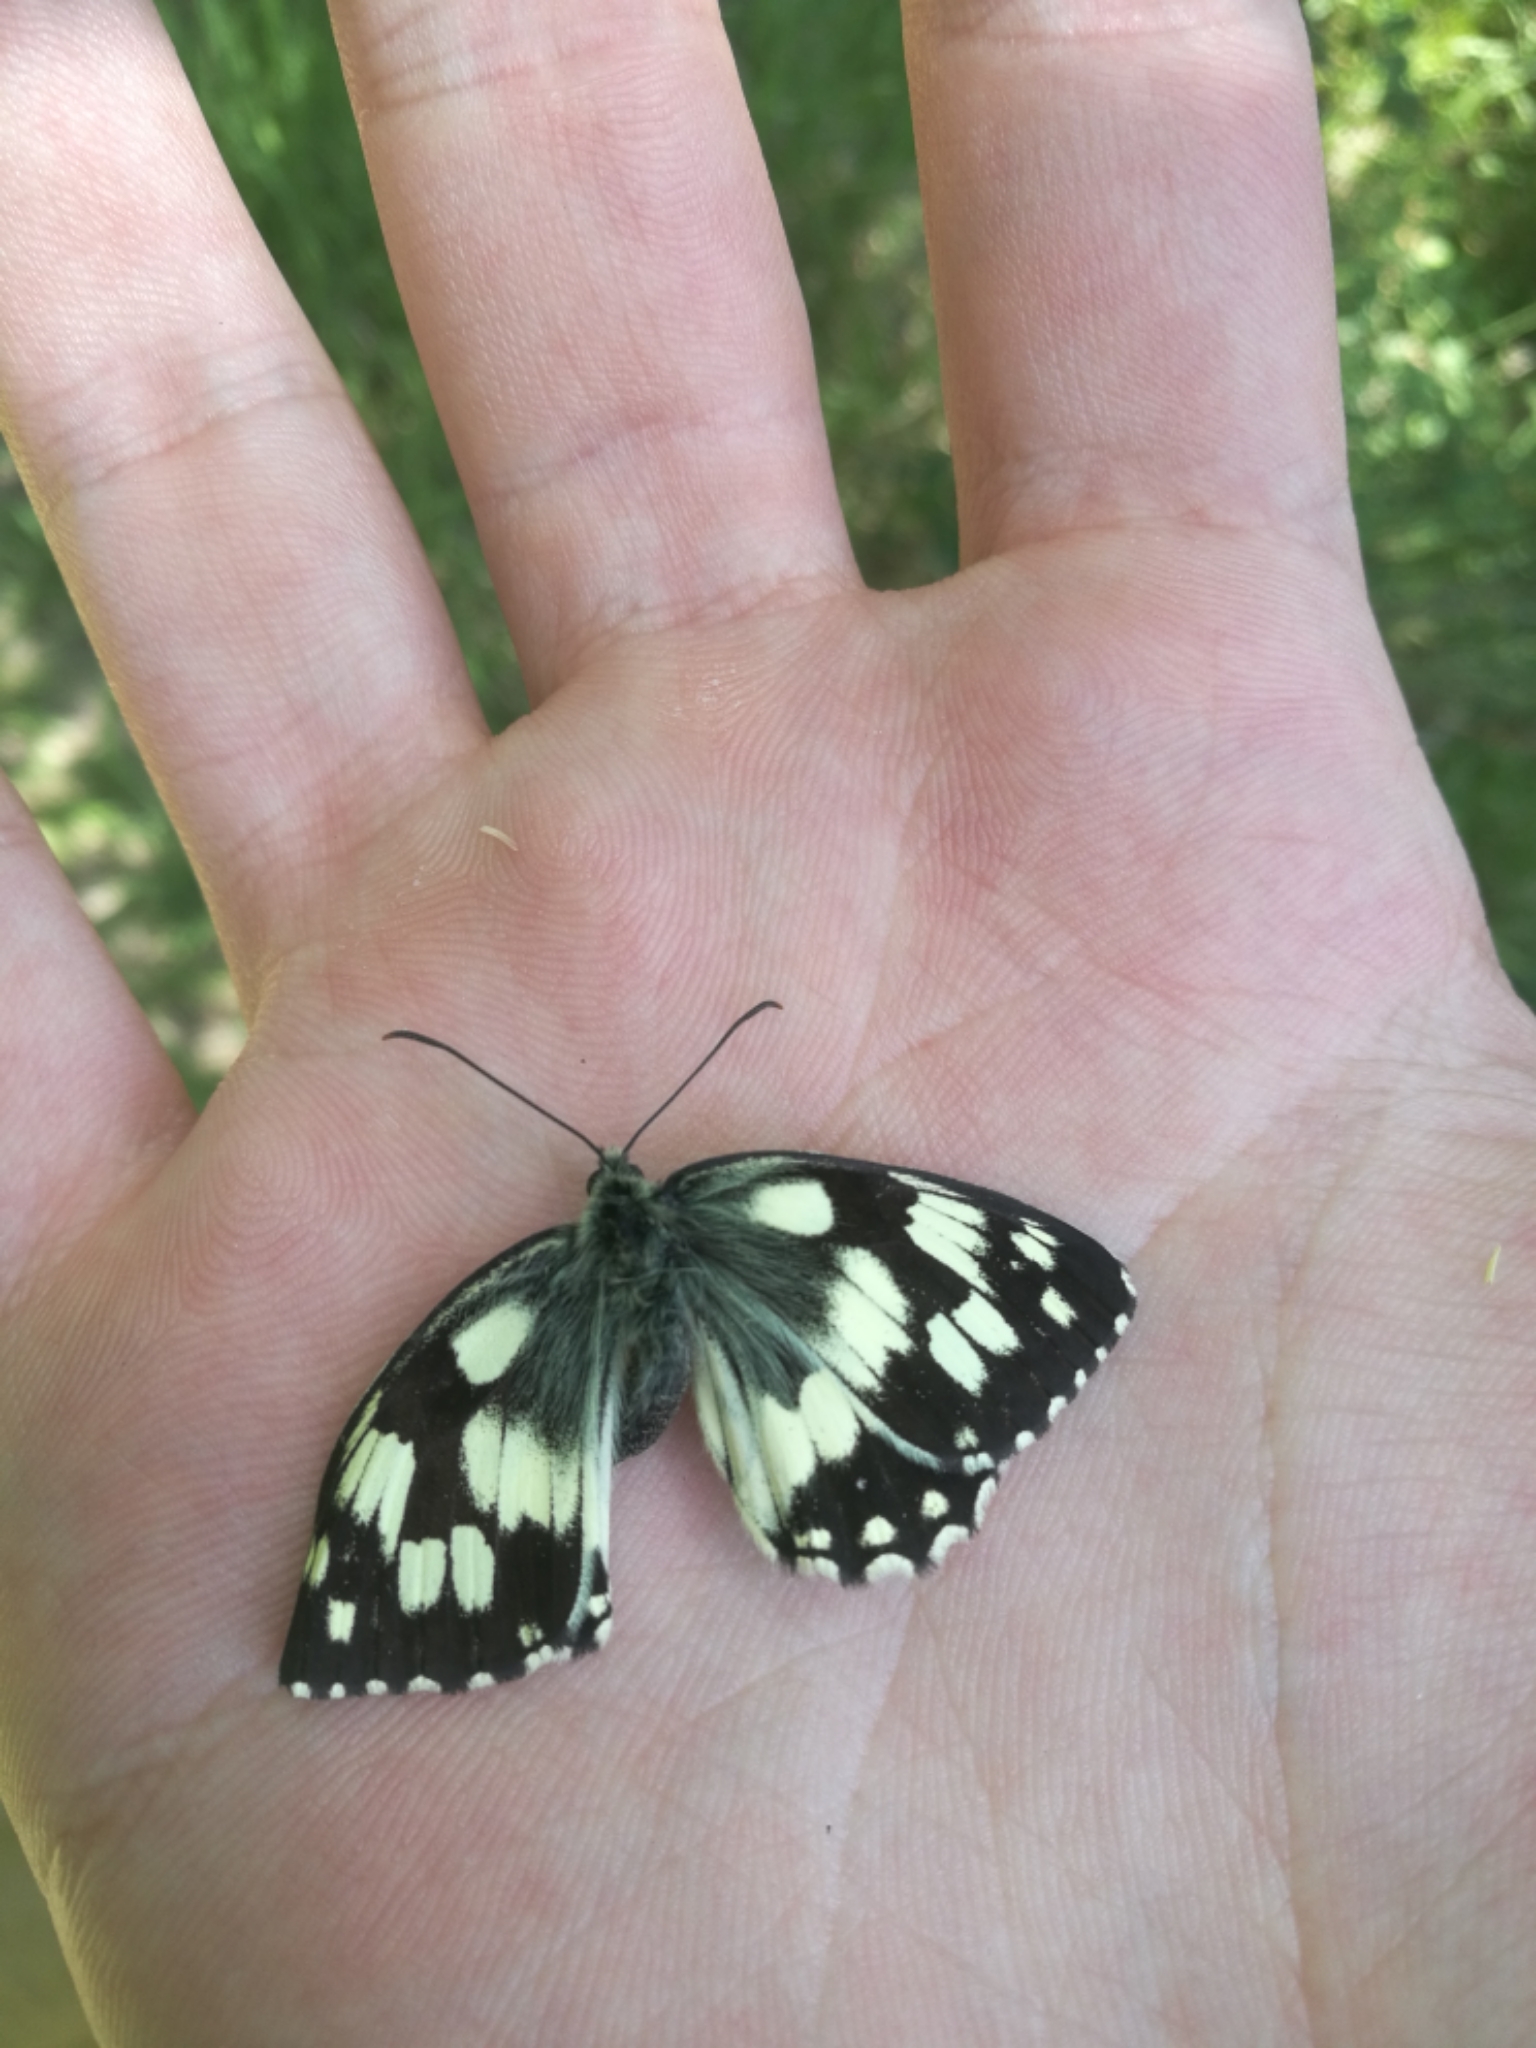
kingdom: Animalia
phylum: Arthropoda
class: Insecta
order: Lepidoptera
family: Nymphalidae
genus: Melanargia
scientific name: Melanargia galathea
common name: Marbled white
